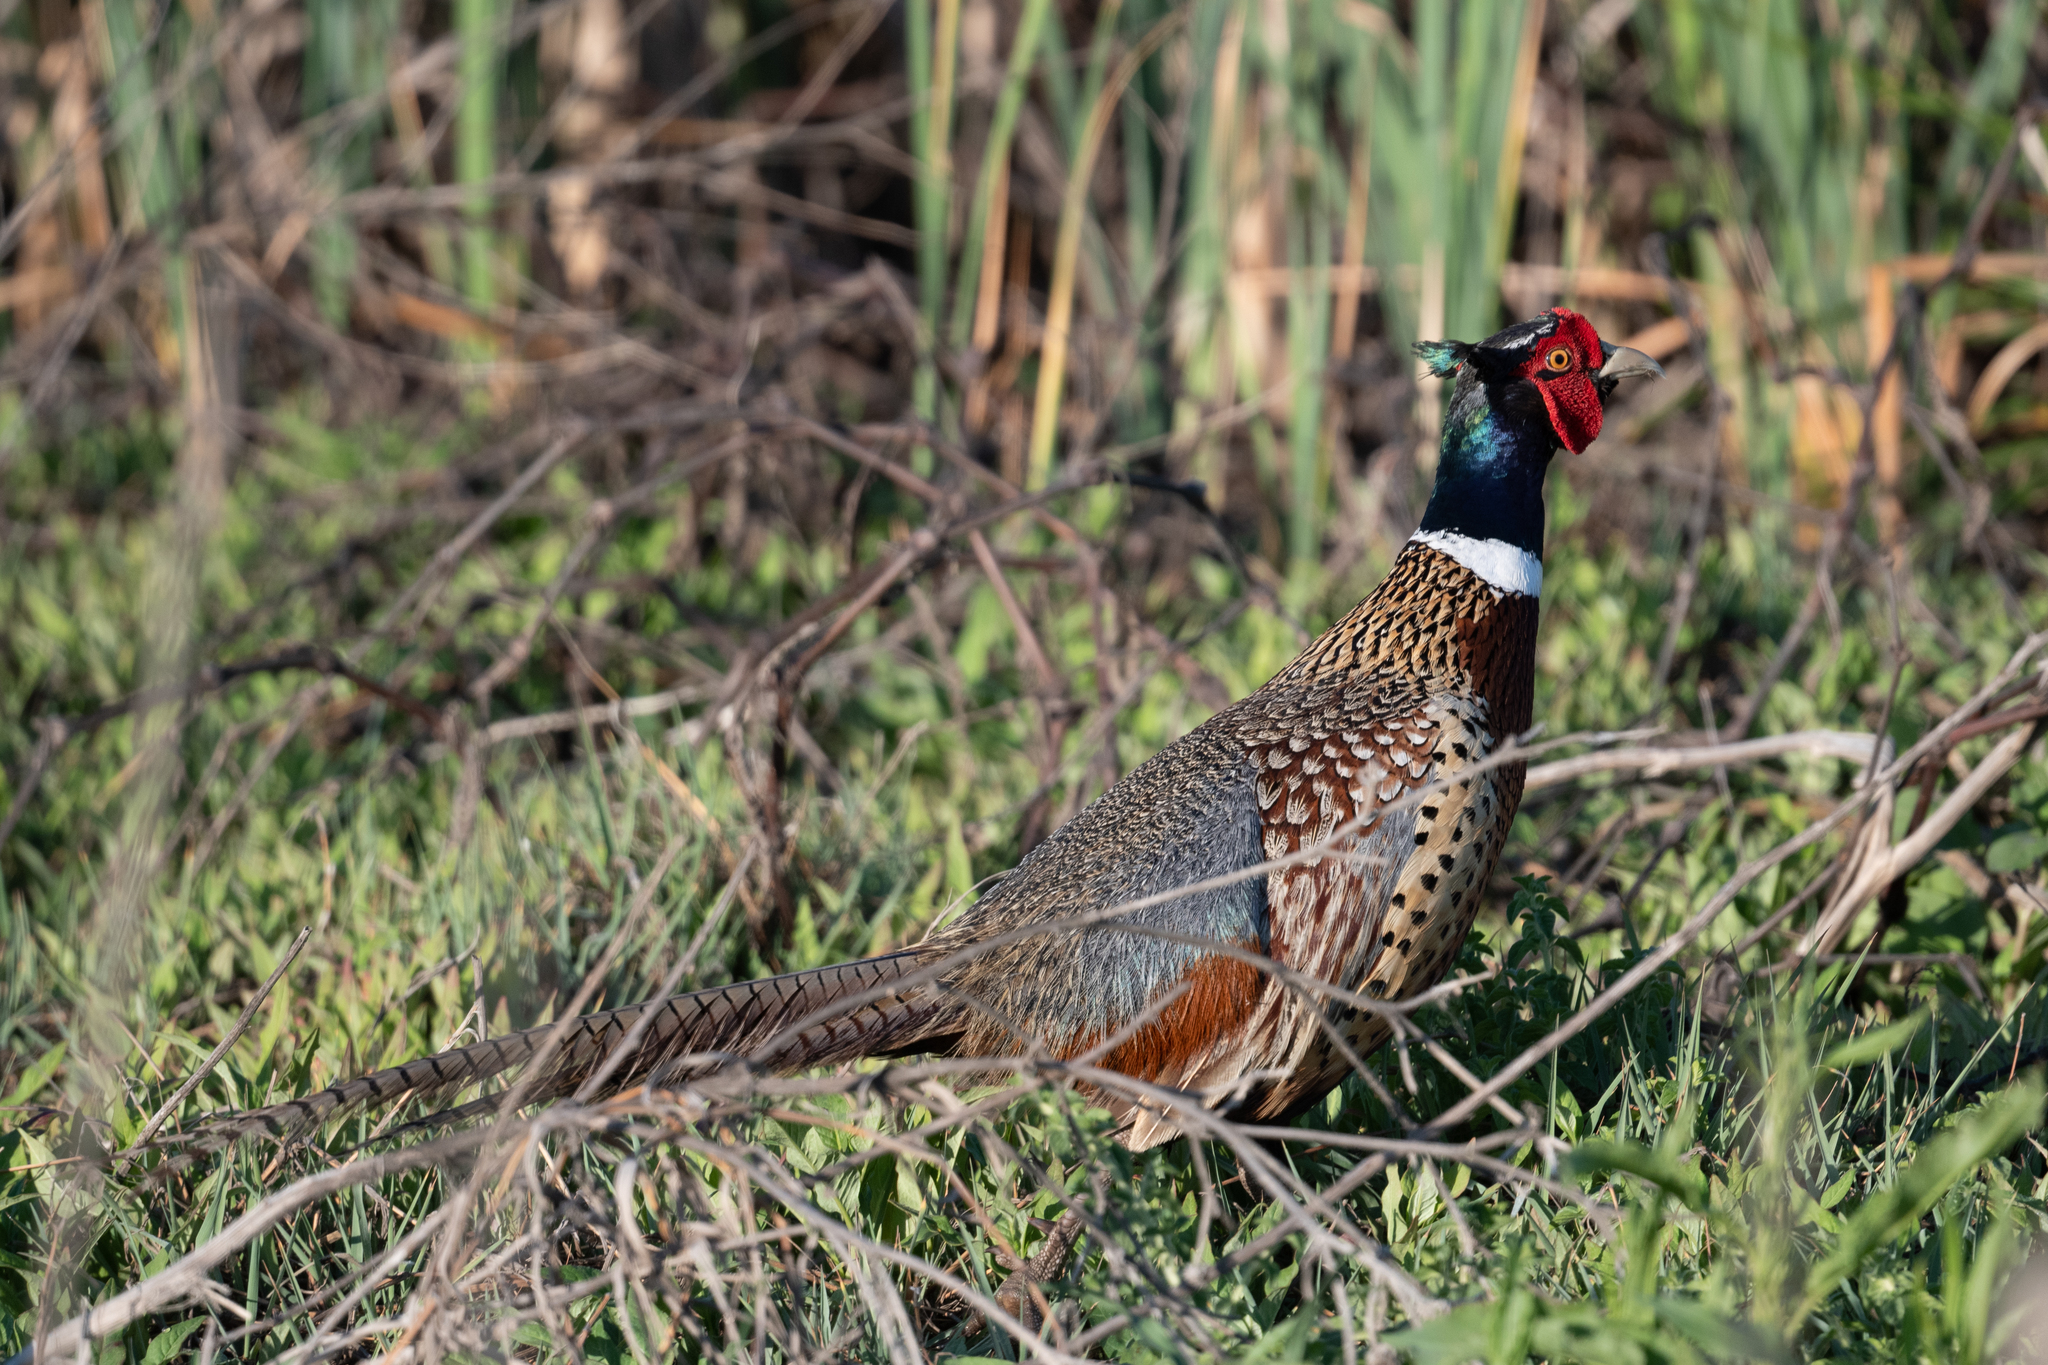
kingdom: Animalia
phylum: Chordata
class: Aves
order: Galliformes
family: Phasianidae
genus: Phasianus
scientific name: Phasianus colchicus
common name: Common pheasant
